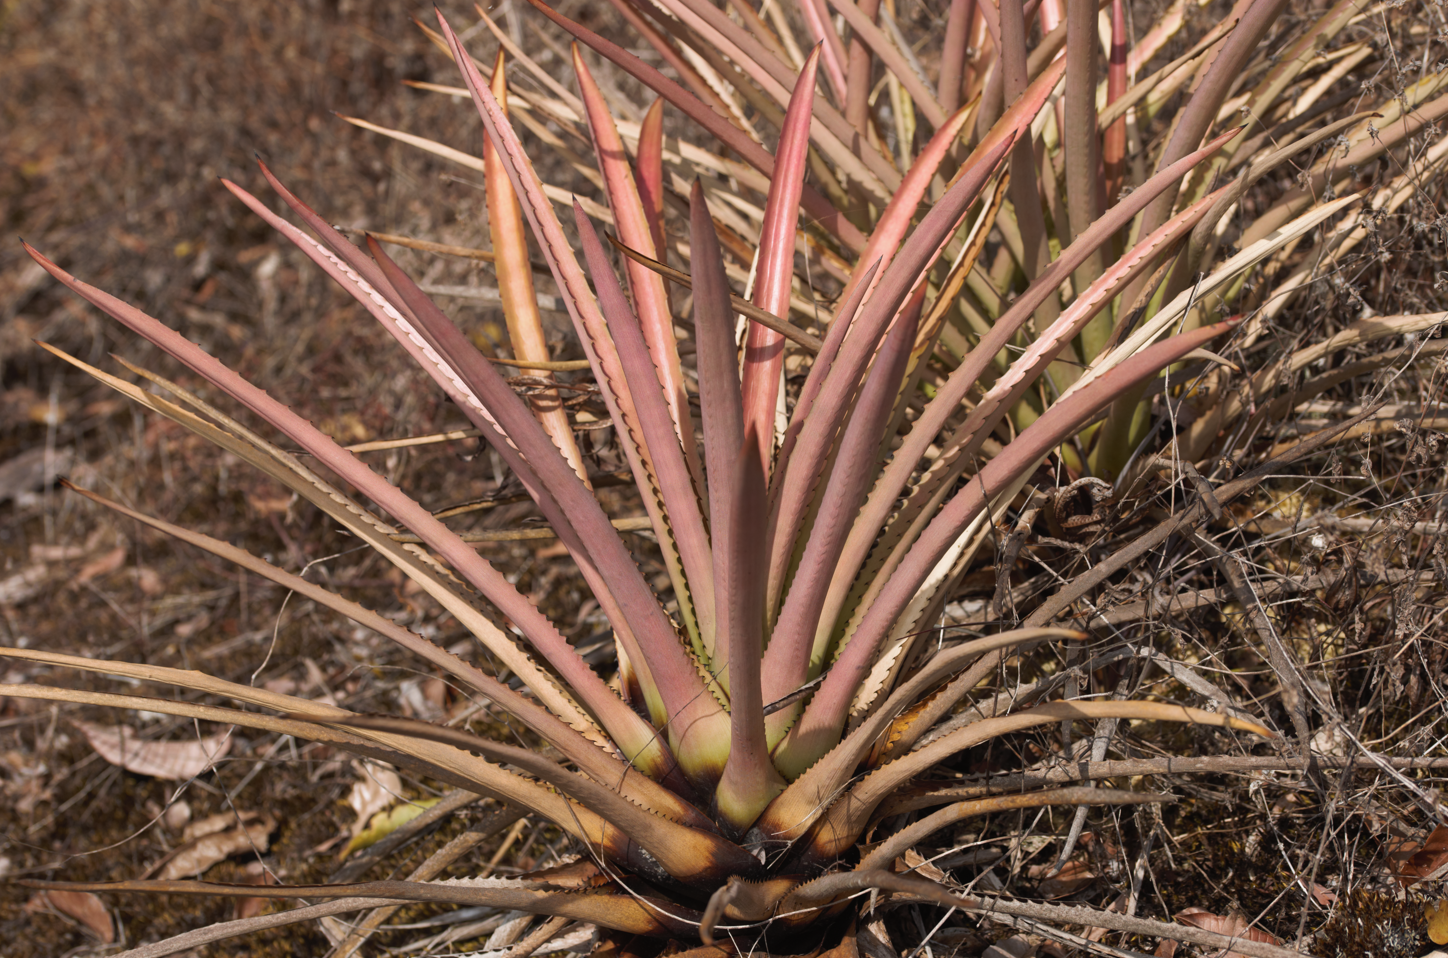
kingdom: Plantae
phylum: Tracheophyta
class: Liliopsida
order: Poales
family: Bromeliaceae
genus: Aechmea
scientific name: Aechmea vallerandii
